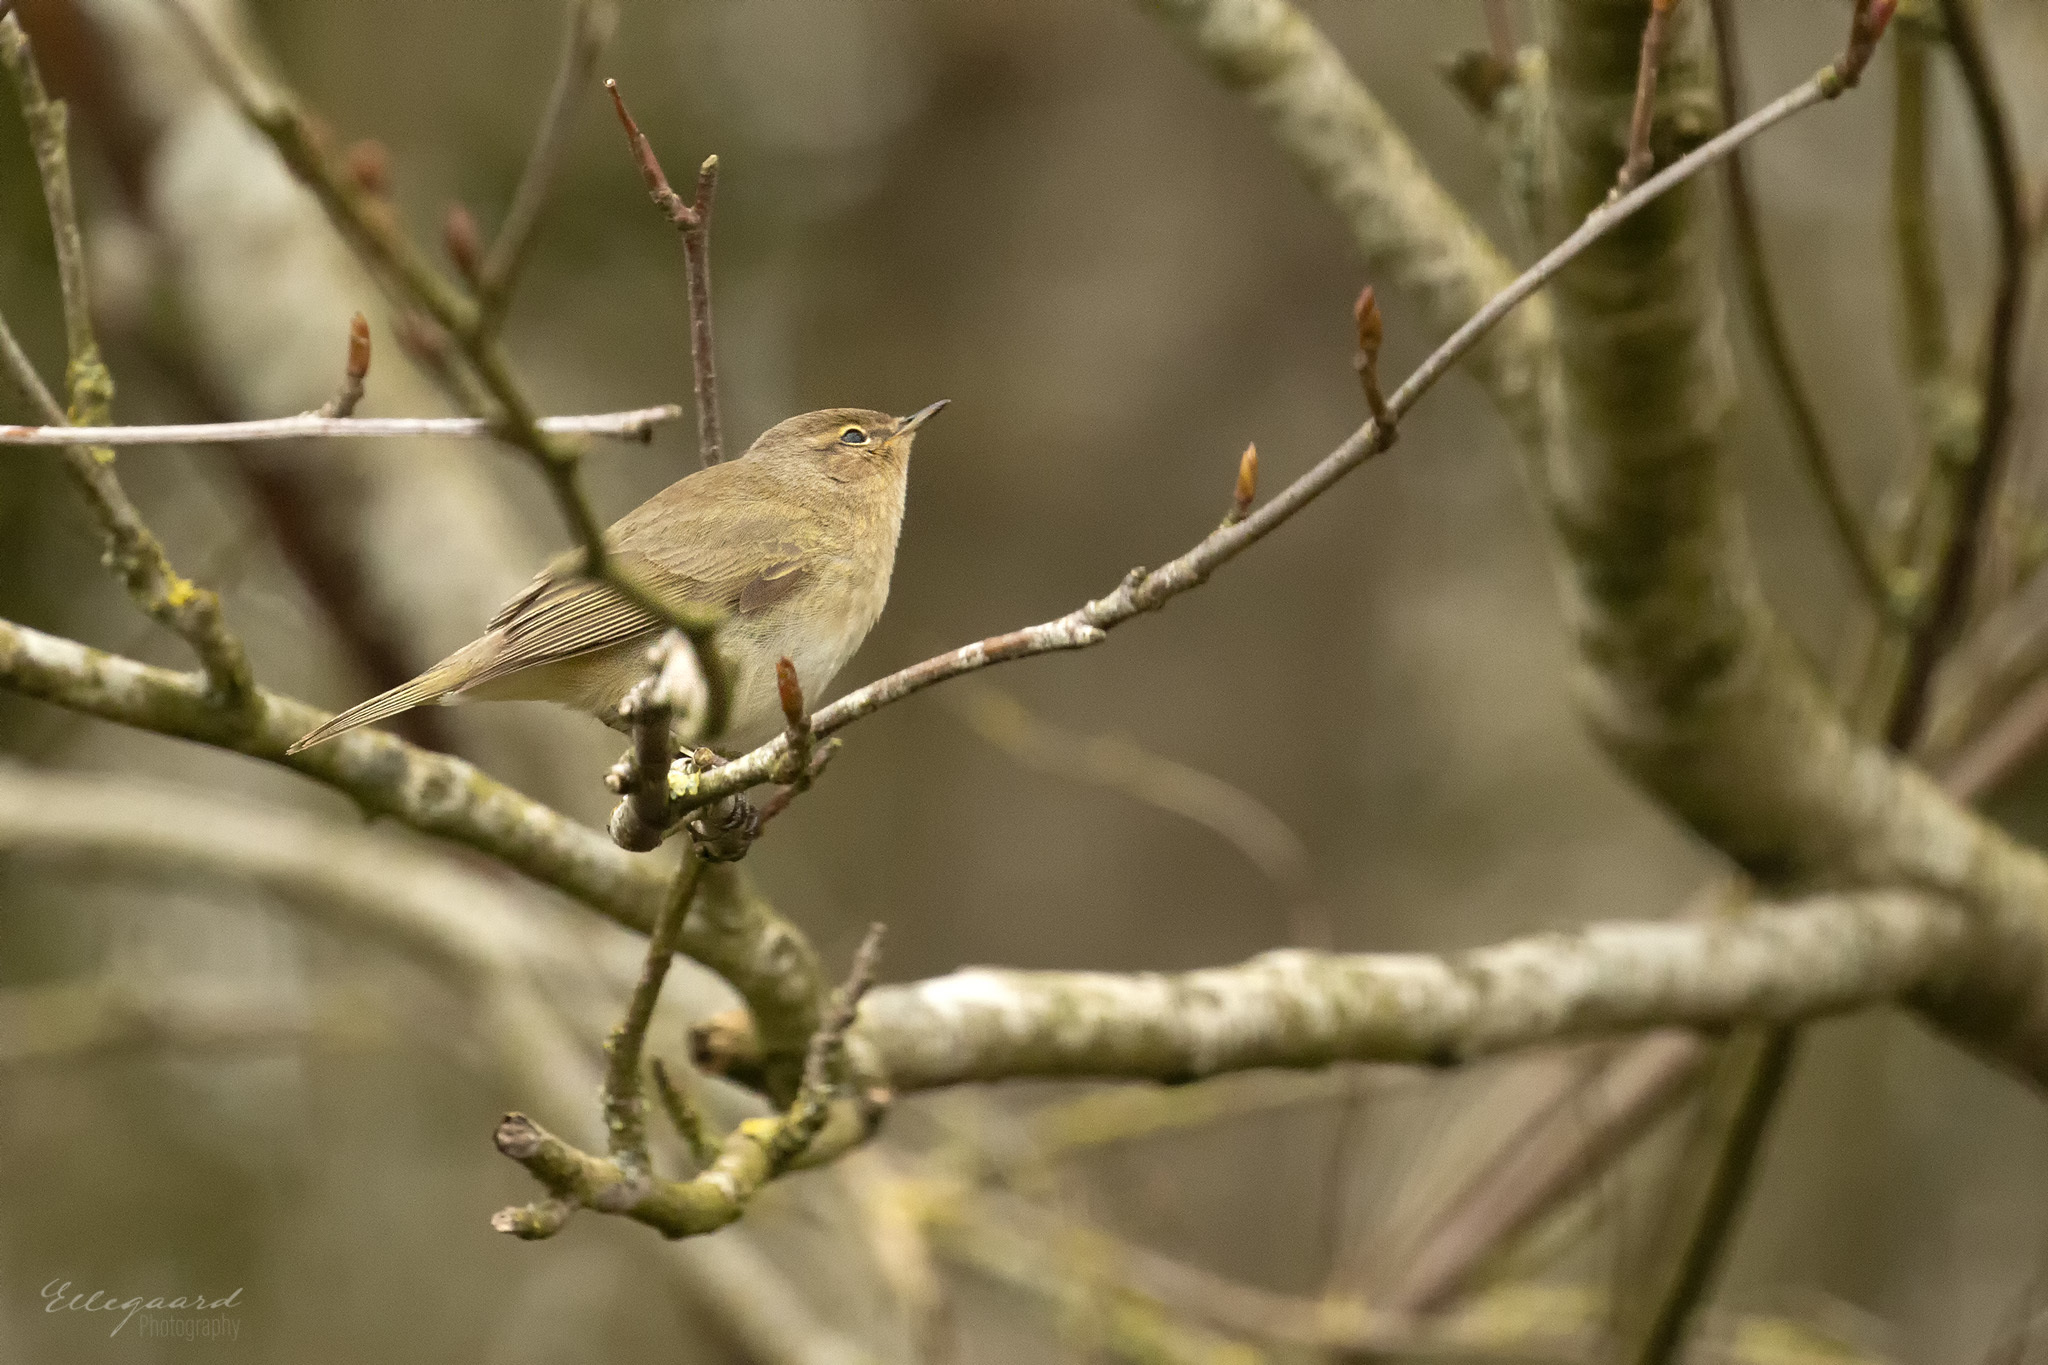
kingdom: Animalia
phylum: Chordata
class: Aves
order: Passeriformes
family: Phylloscopidae
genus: Phylloscopus
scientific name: Phylloscopus collybita
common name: Common chiffchaff
